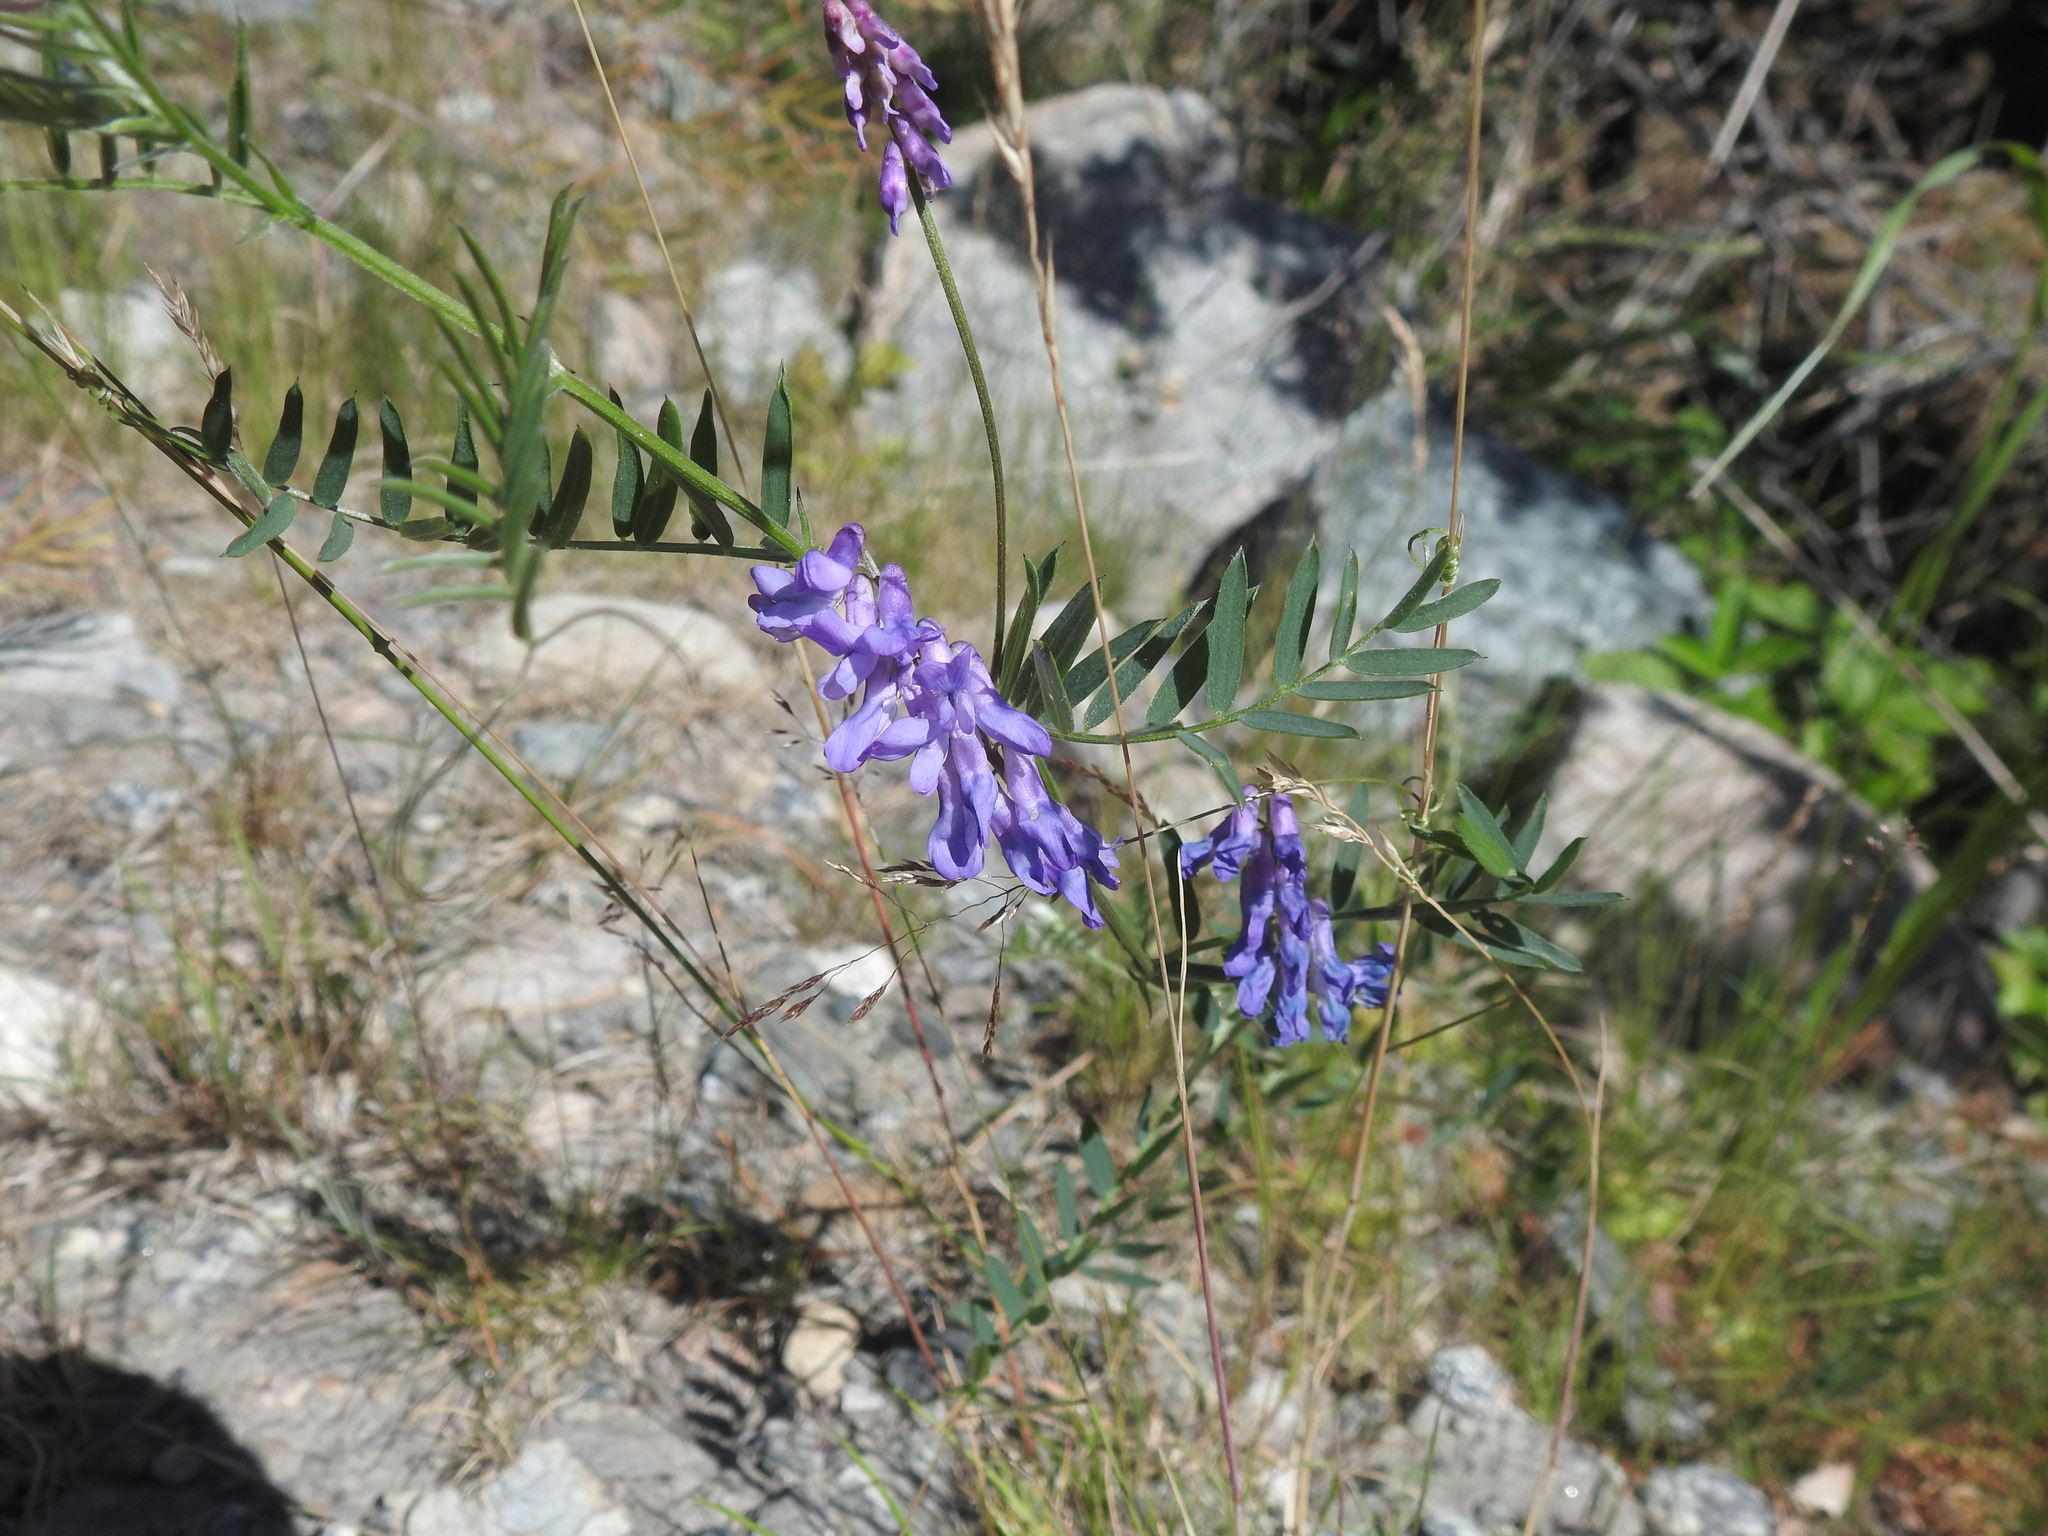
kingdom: Plantae
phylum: Tracheophyta
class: Magnoliopsida
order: Fabales
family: Fabaceae
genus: Vicia
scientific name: Vicia cracca
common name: Bird vetch
